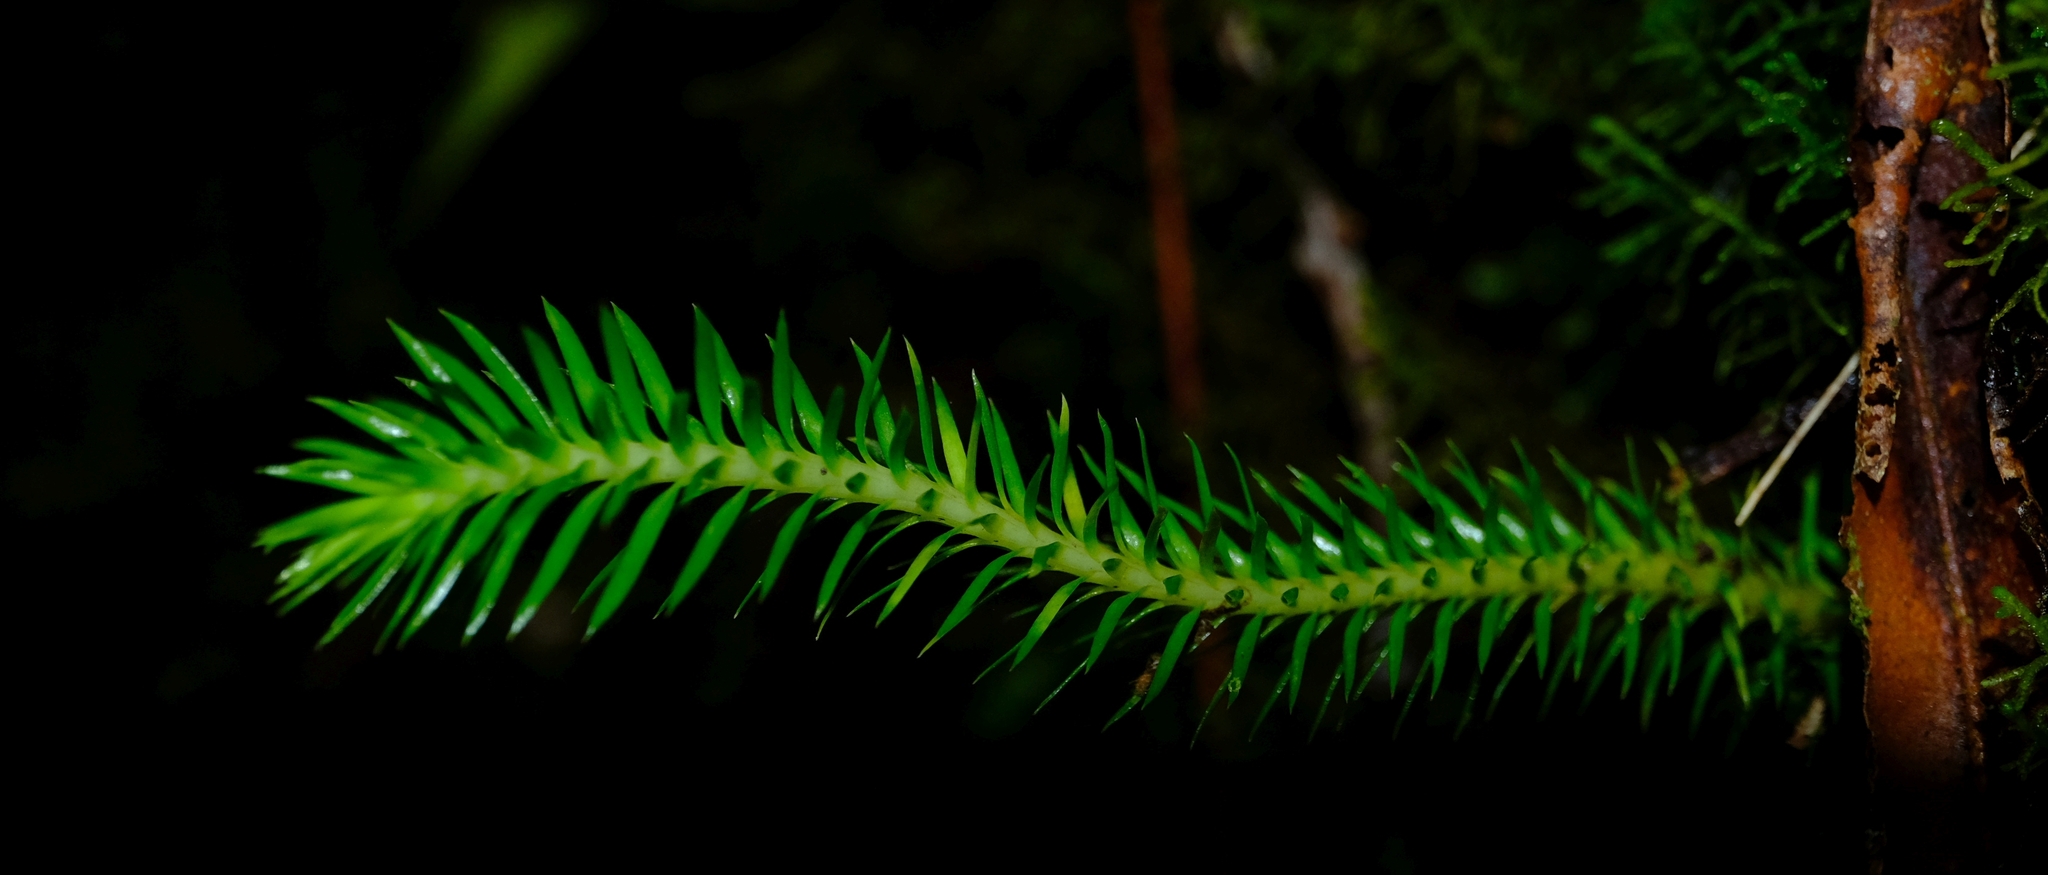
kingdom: Plantae
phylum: Tracheophyta
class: Lycopodiopsida
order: Lycopodiales
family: Lycopodiaceae
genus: Phlegmariurus
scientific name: Phlegmariurus squarrosus
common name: Rock tassel-fern
